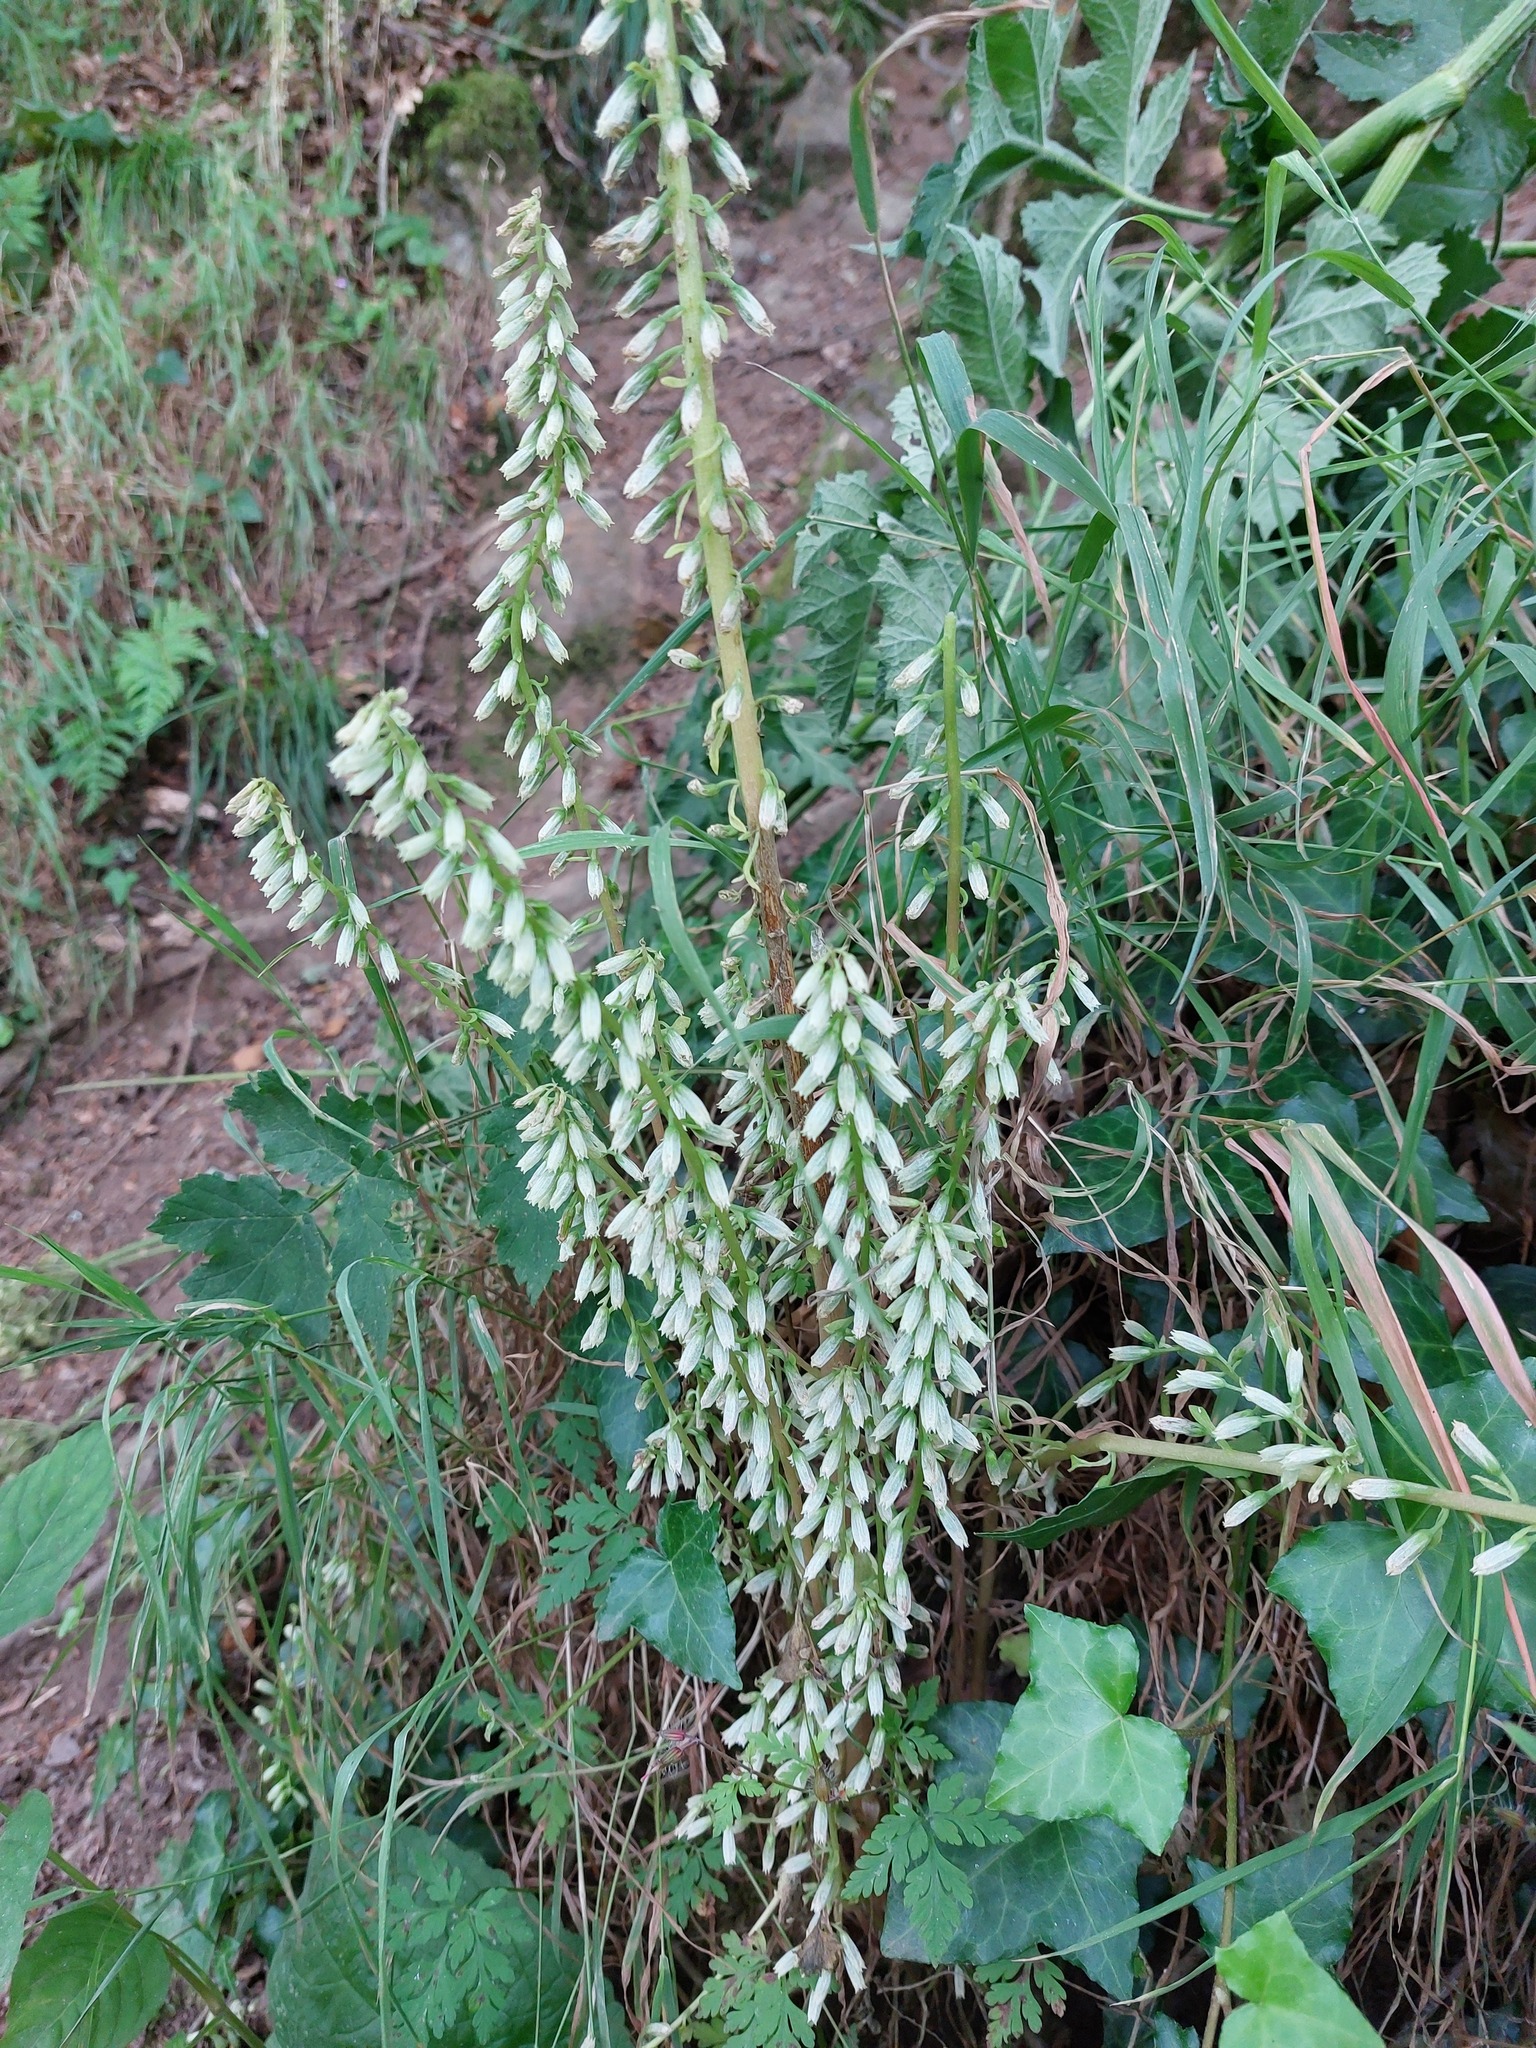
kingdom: Plantae
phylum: Tracheophyta
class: Magnoliopsida
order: Saxifragales
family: Crassulaceae
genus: Umbilicus
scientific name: Umbilicus rupestris
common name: Navelwort
